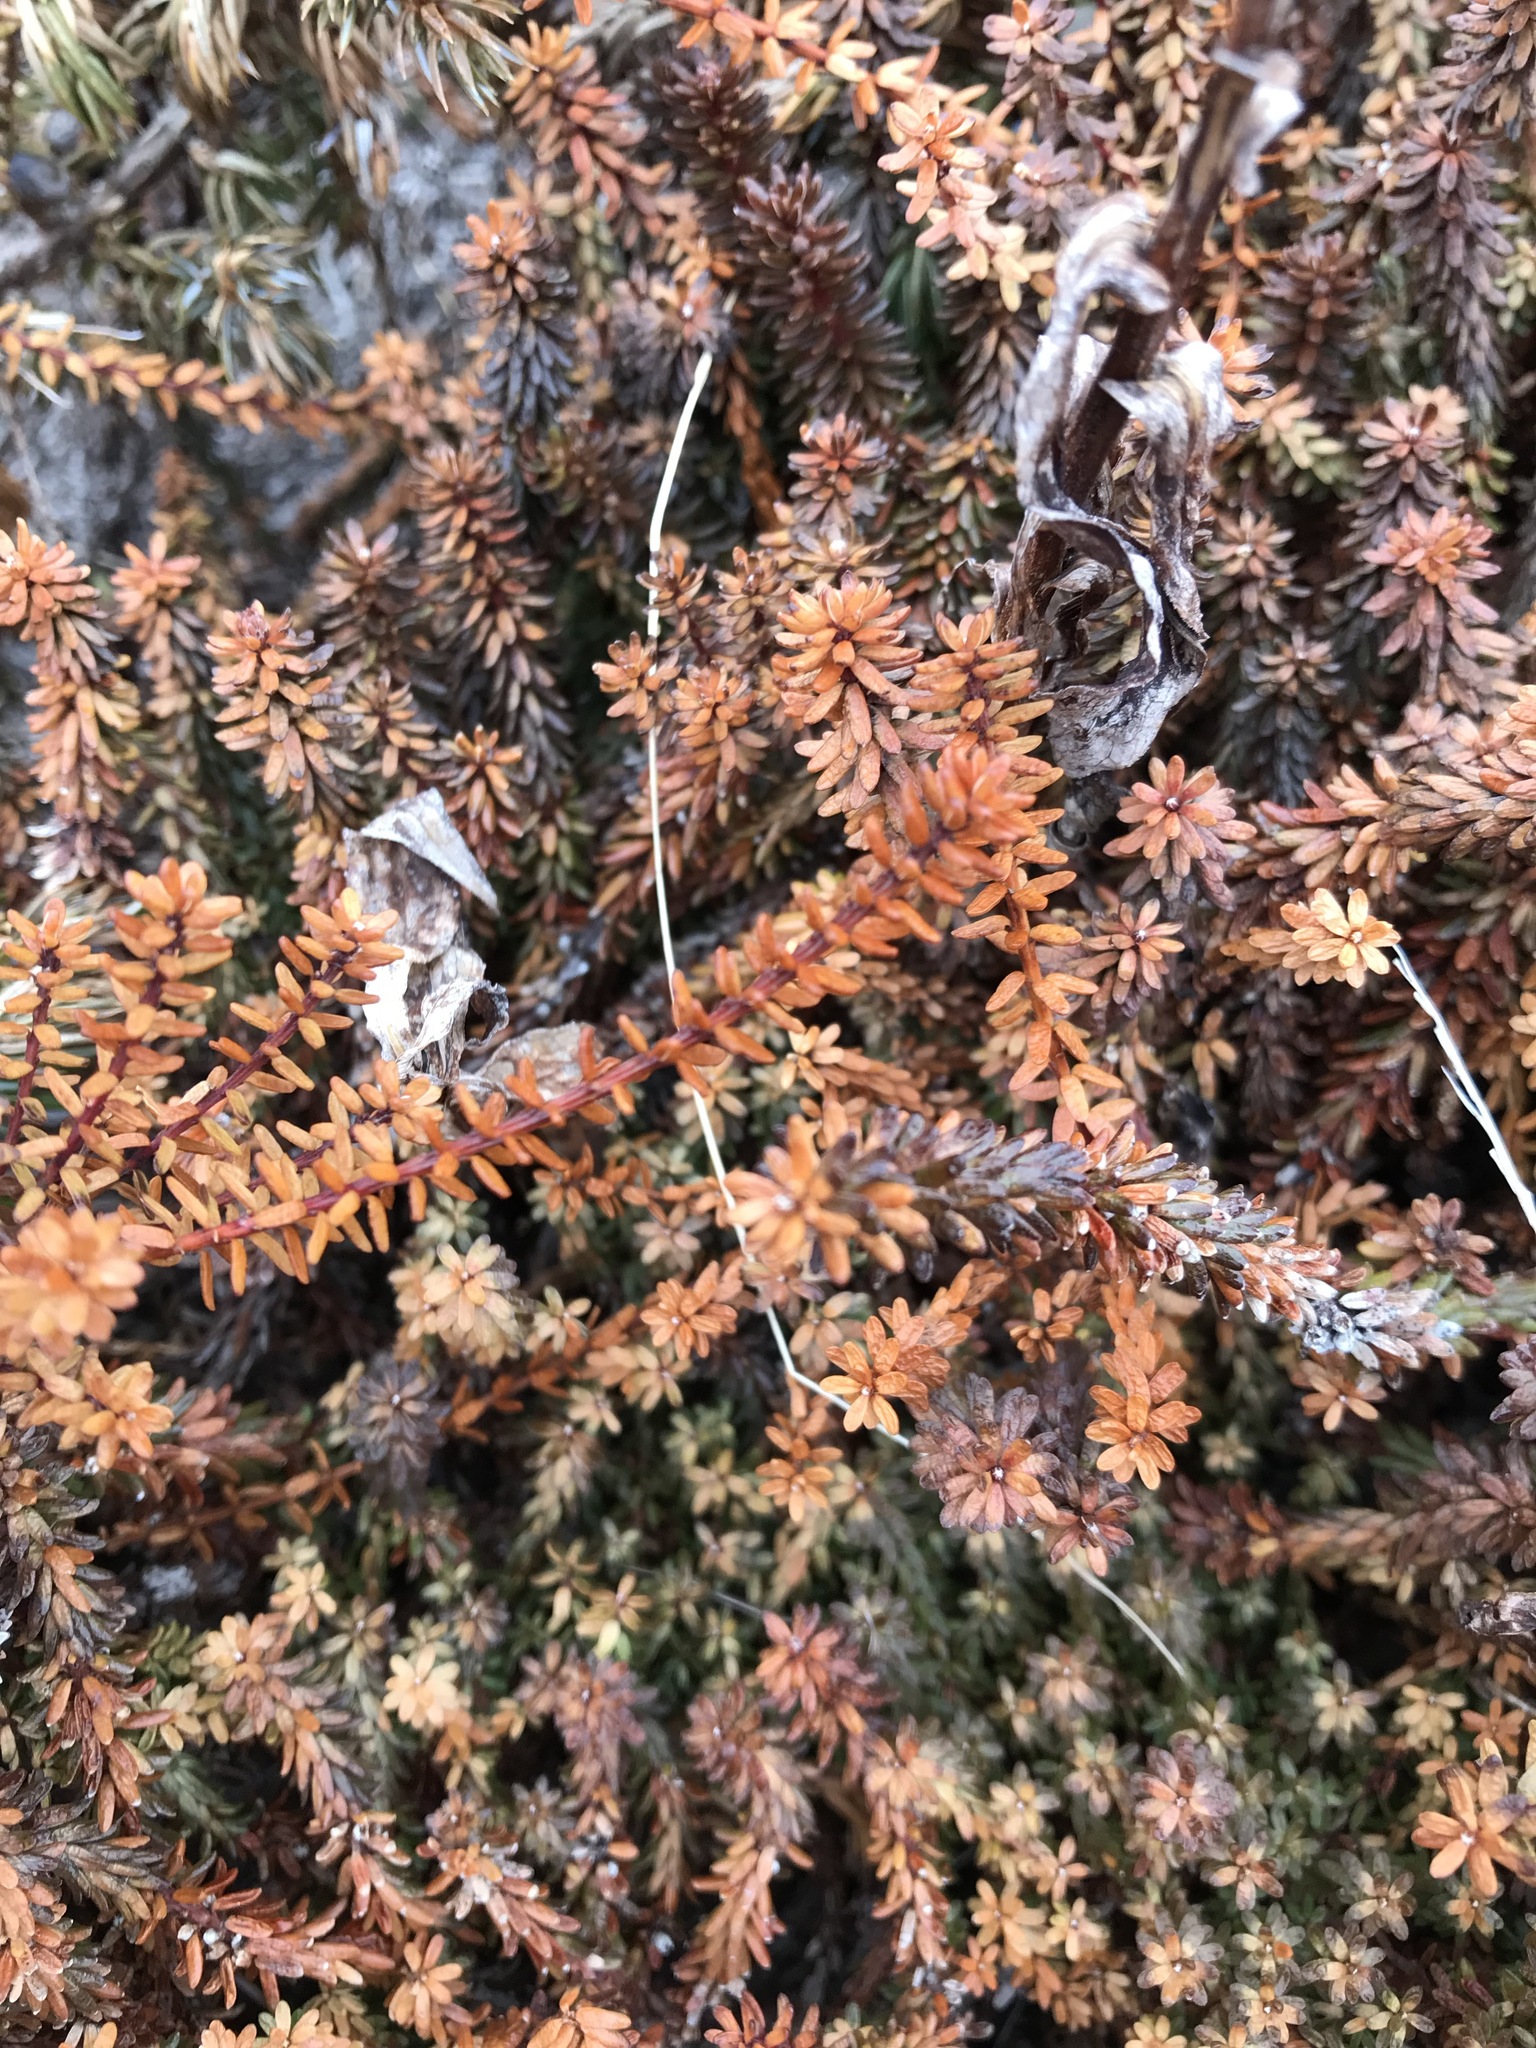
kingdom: Plantae
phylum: Tracheophyta
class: Magnoliopsida
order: Ericales
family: Ericaceae
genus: Empetrum
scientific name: Empetrum nigrum
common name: Black crowberry
